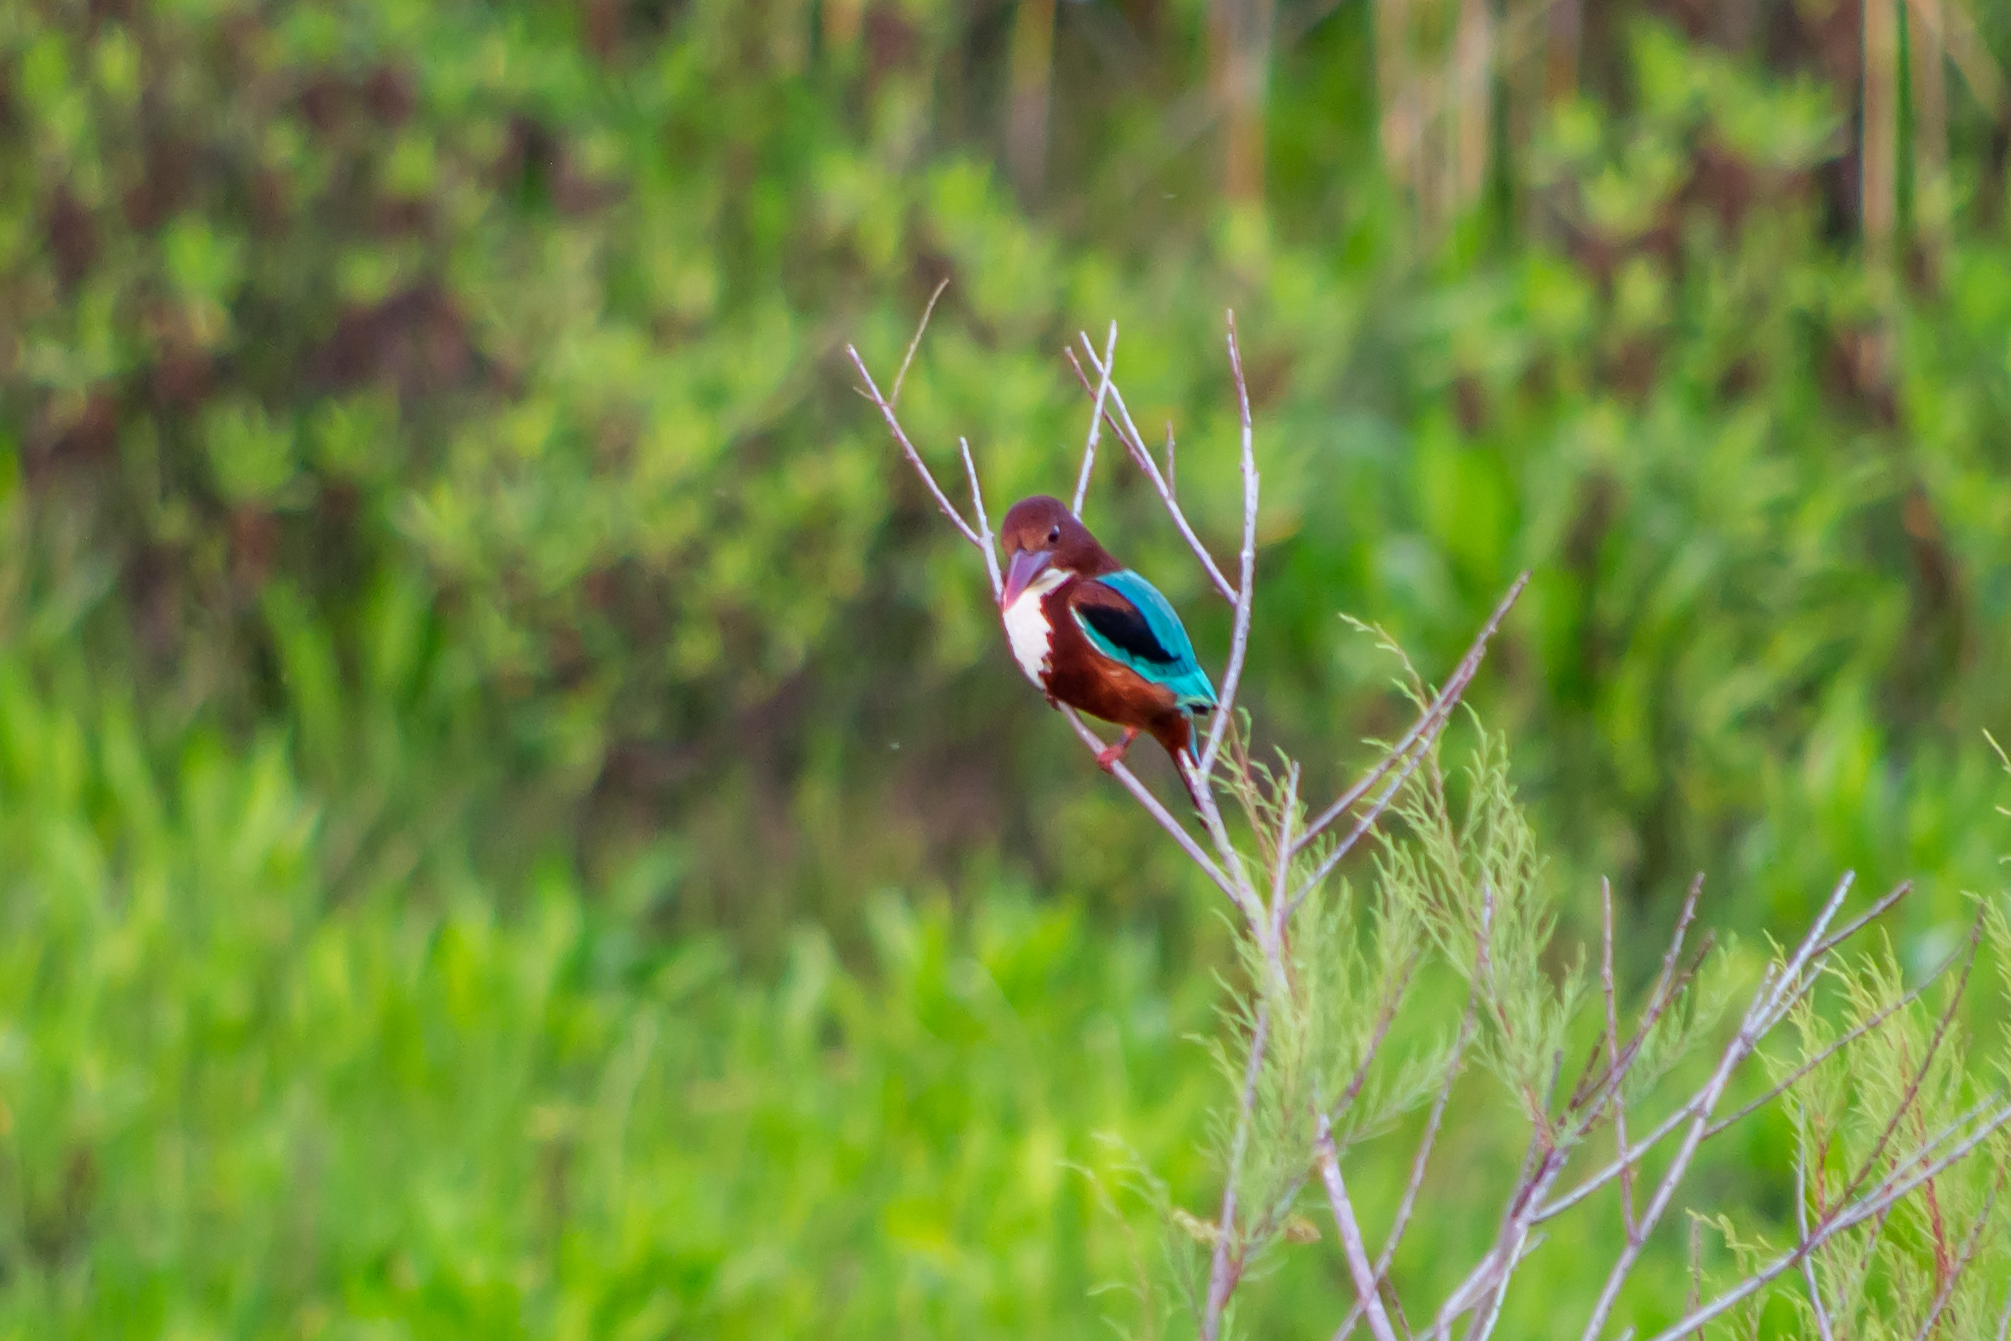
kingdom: Animalia
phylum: Chordata
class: Aves
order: Coraciiformes
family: Alcedinidae
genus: Halcyon
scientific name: Halcyon smyrnensis
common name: White-throated kingfisher
